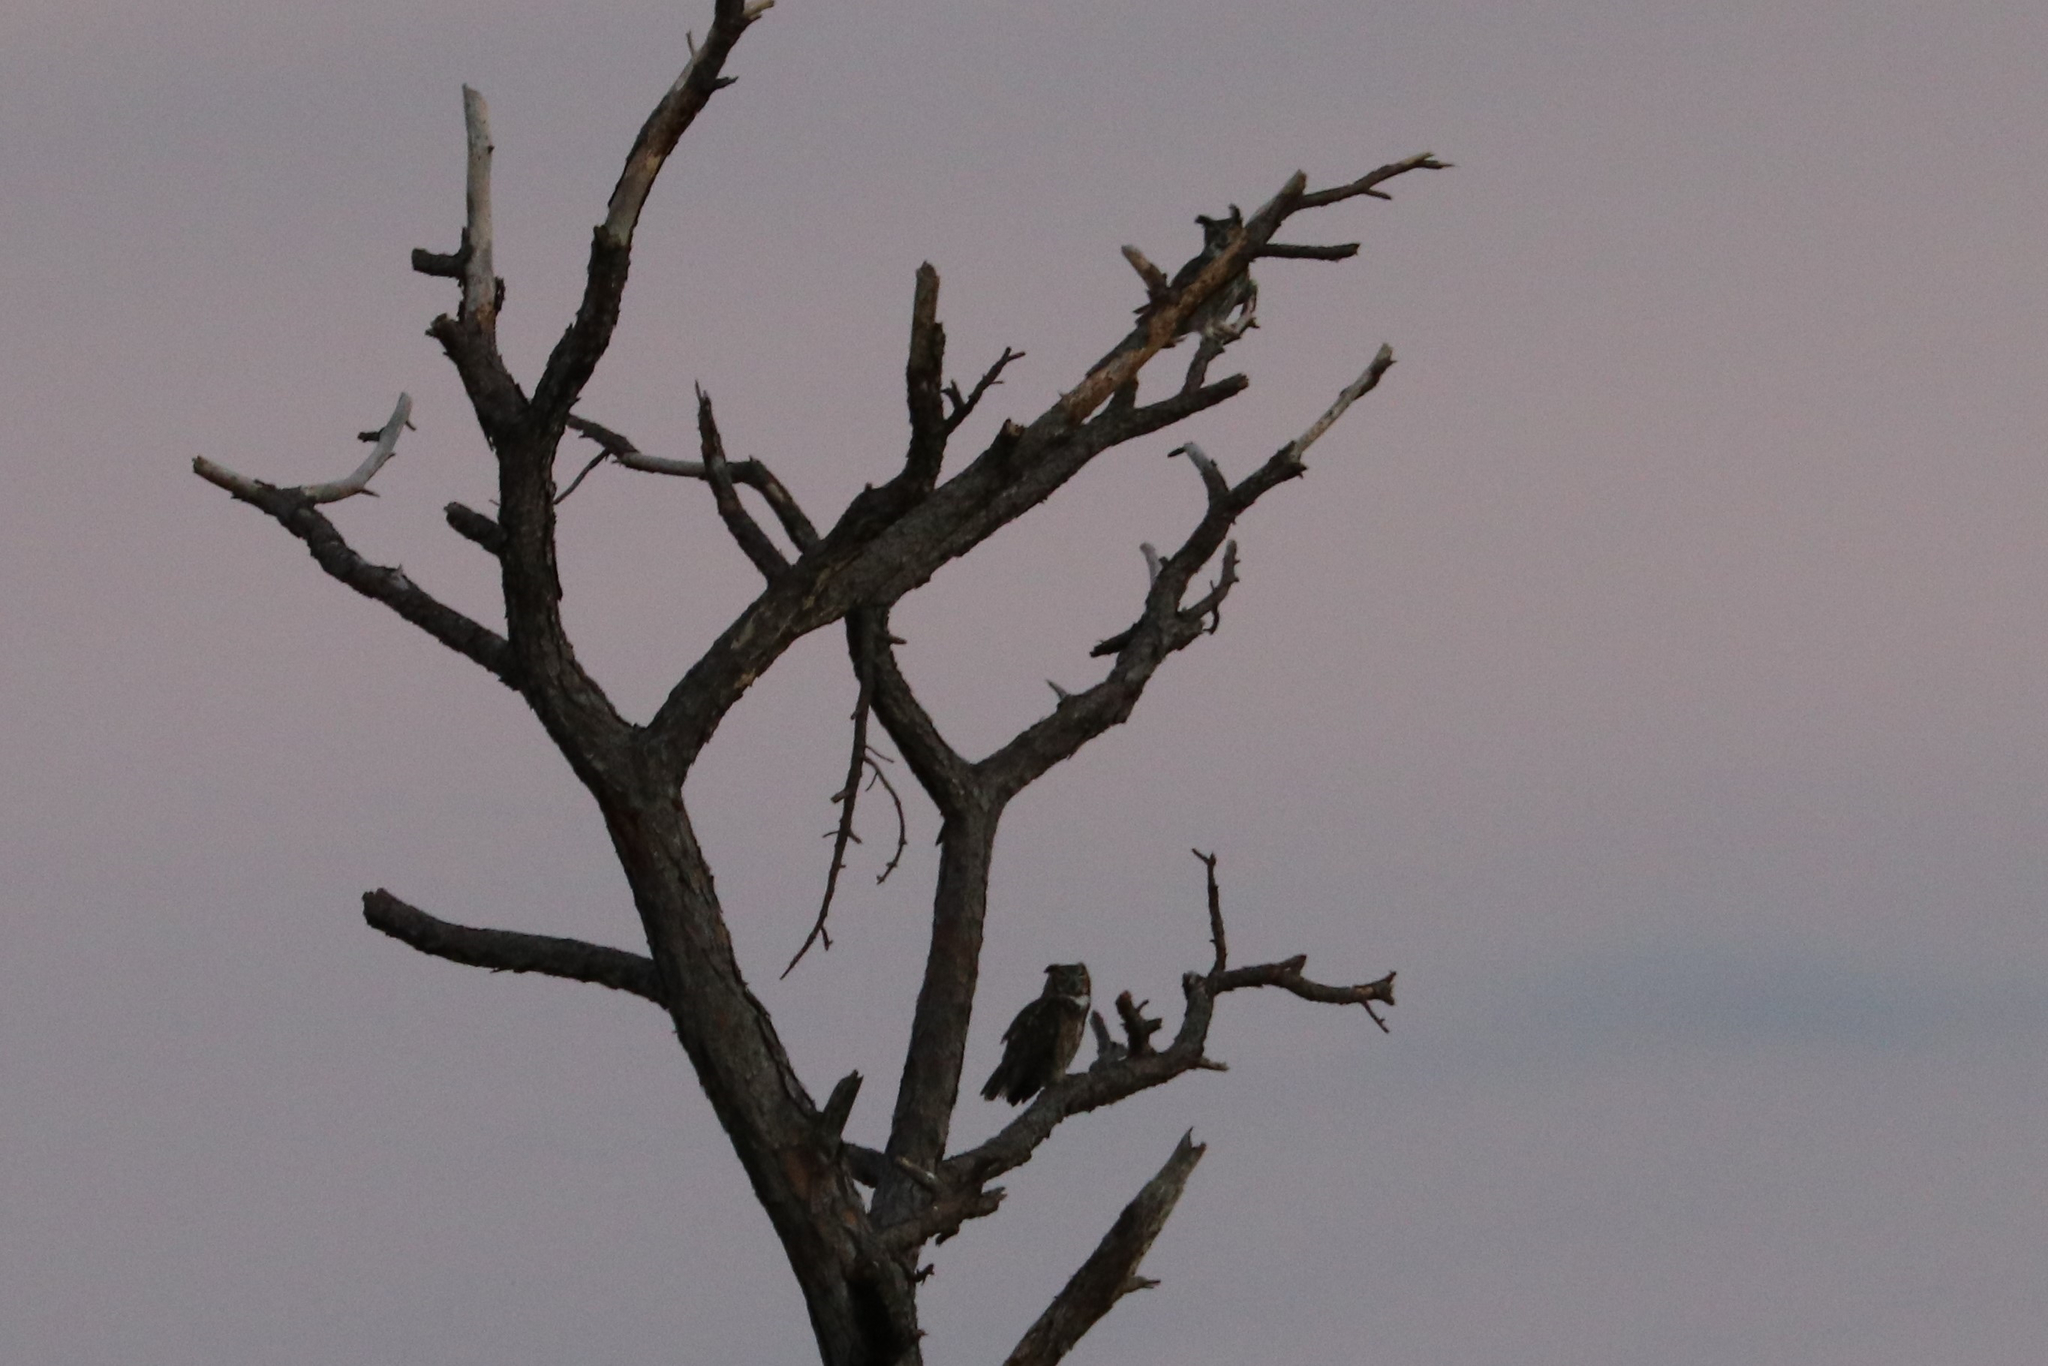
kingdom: Animalia
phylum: Chordata
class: Aves
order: Strigiformes
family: Strigidae
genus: Bubo
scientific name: Bubo virginianus
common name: Great horned owl
